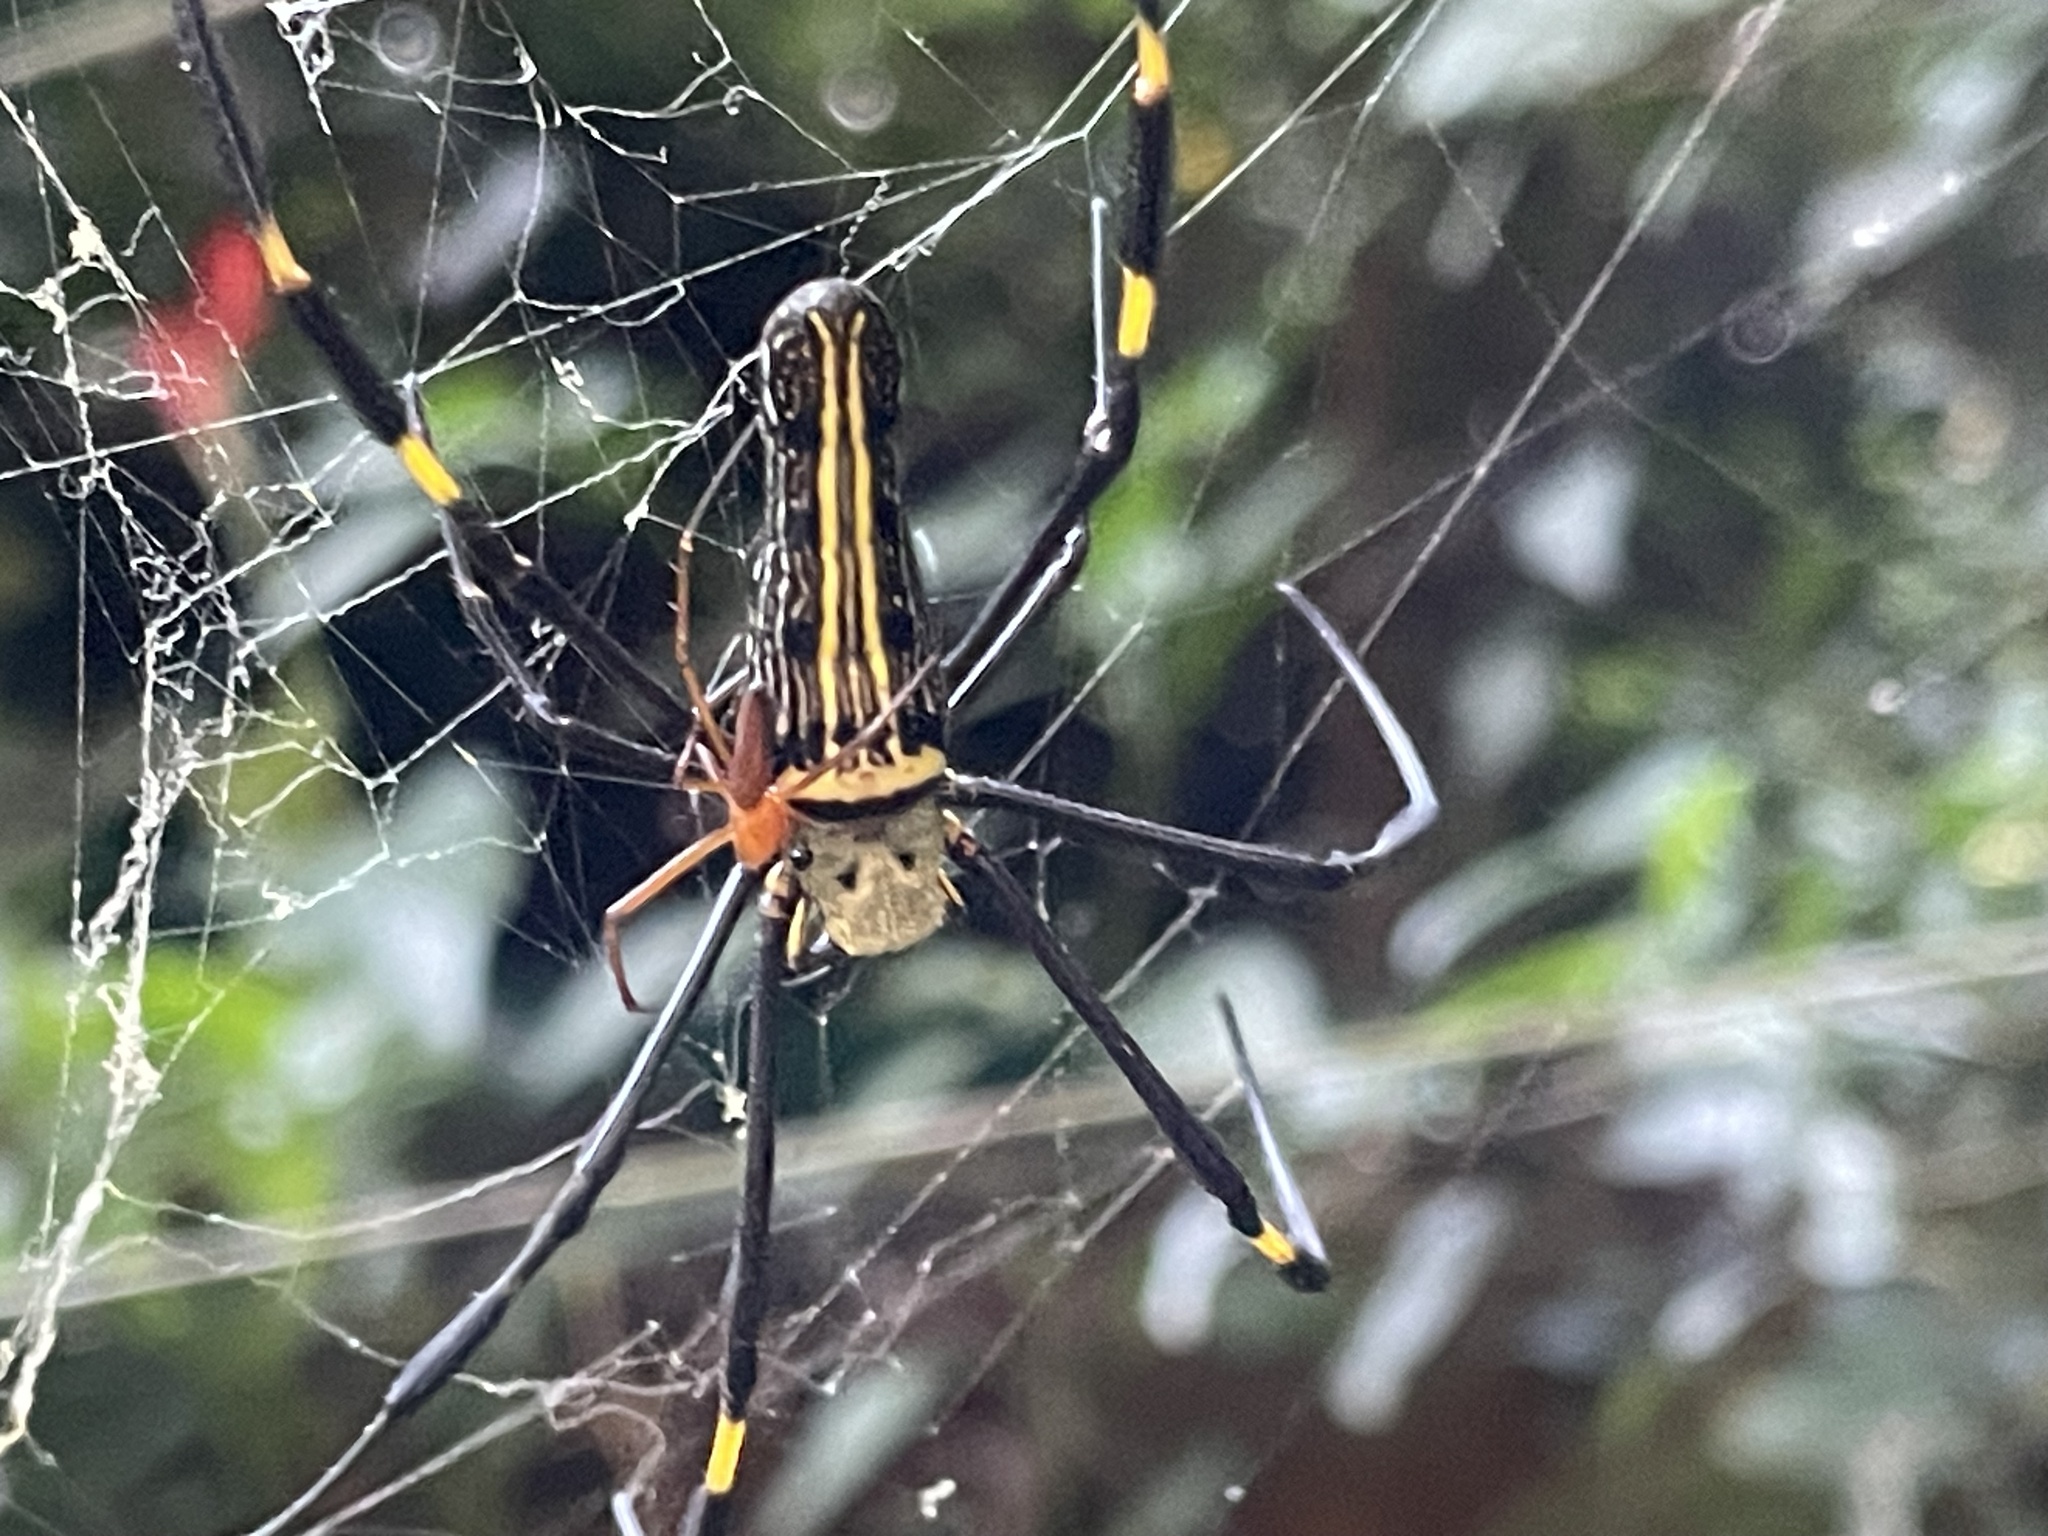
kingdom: Animalia
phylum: Arthropoda
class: Arachnida
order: Araneae
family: Araneidae
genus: Nephila
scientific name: Nephila pilipes
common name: Giant golden orb weaver
